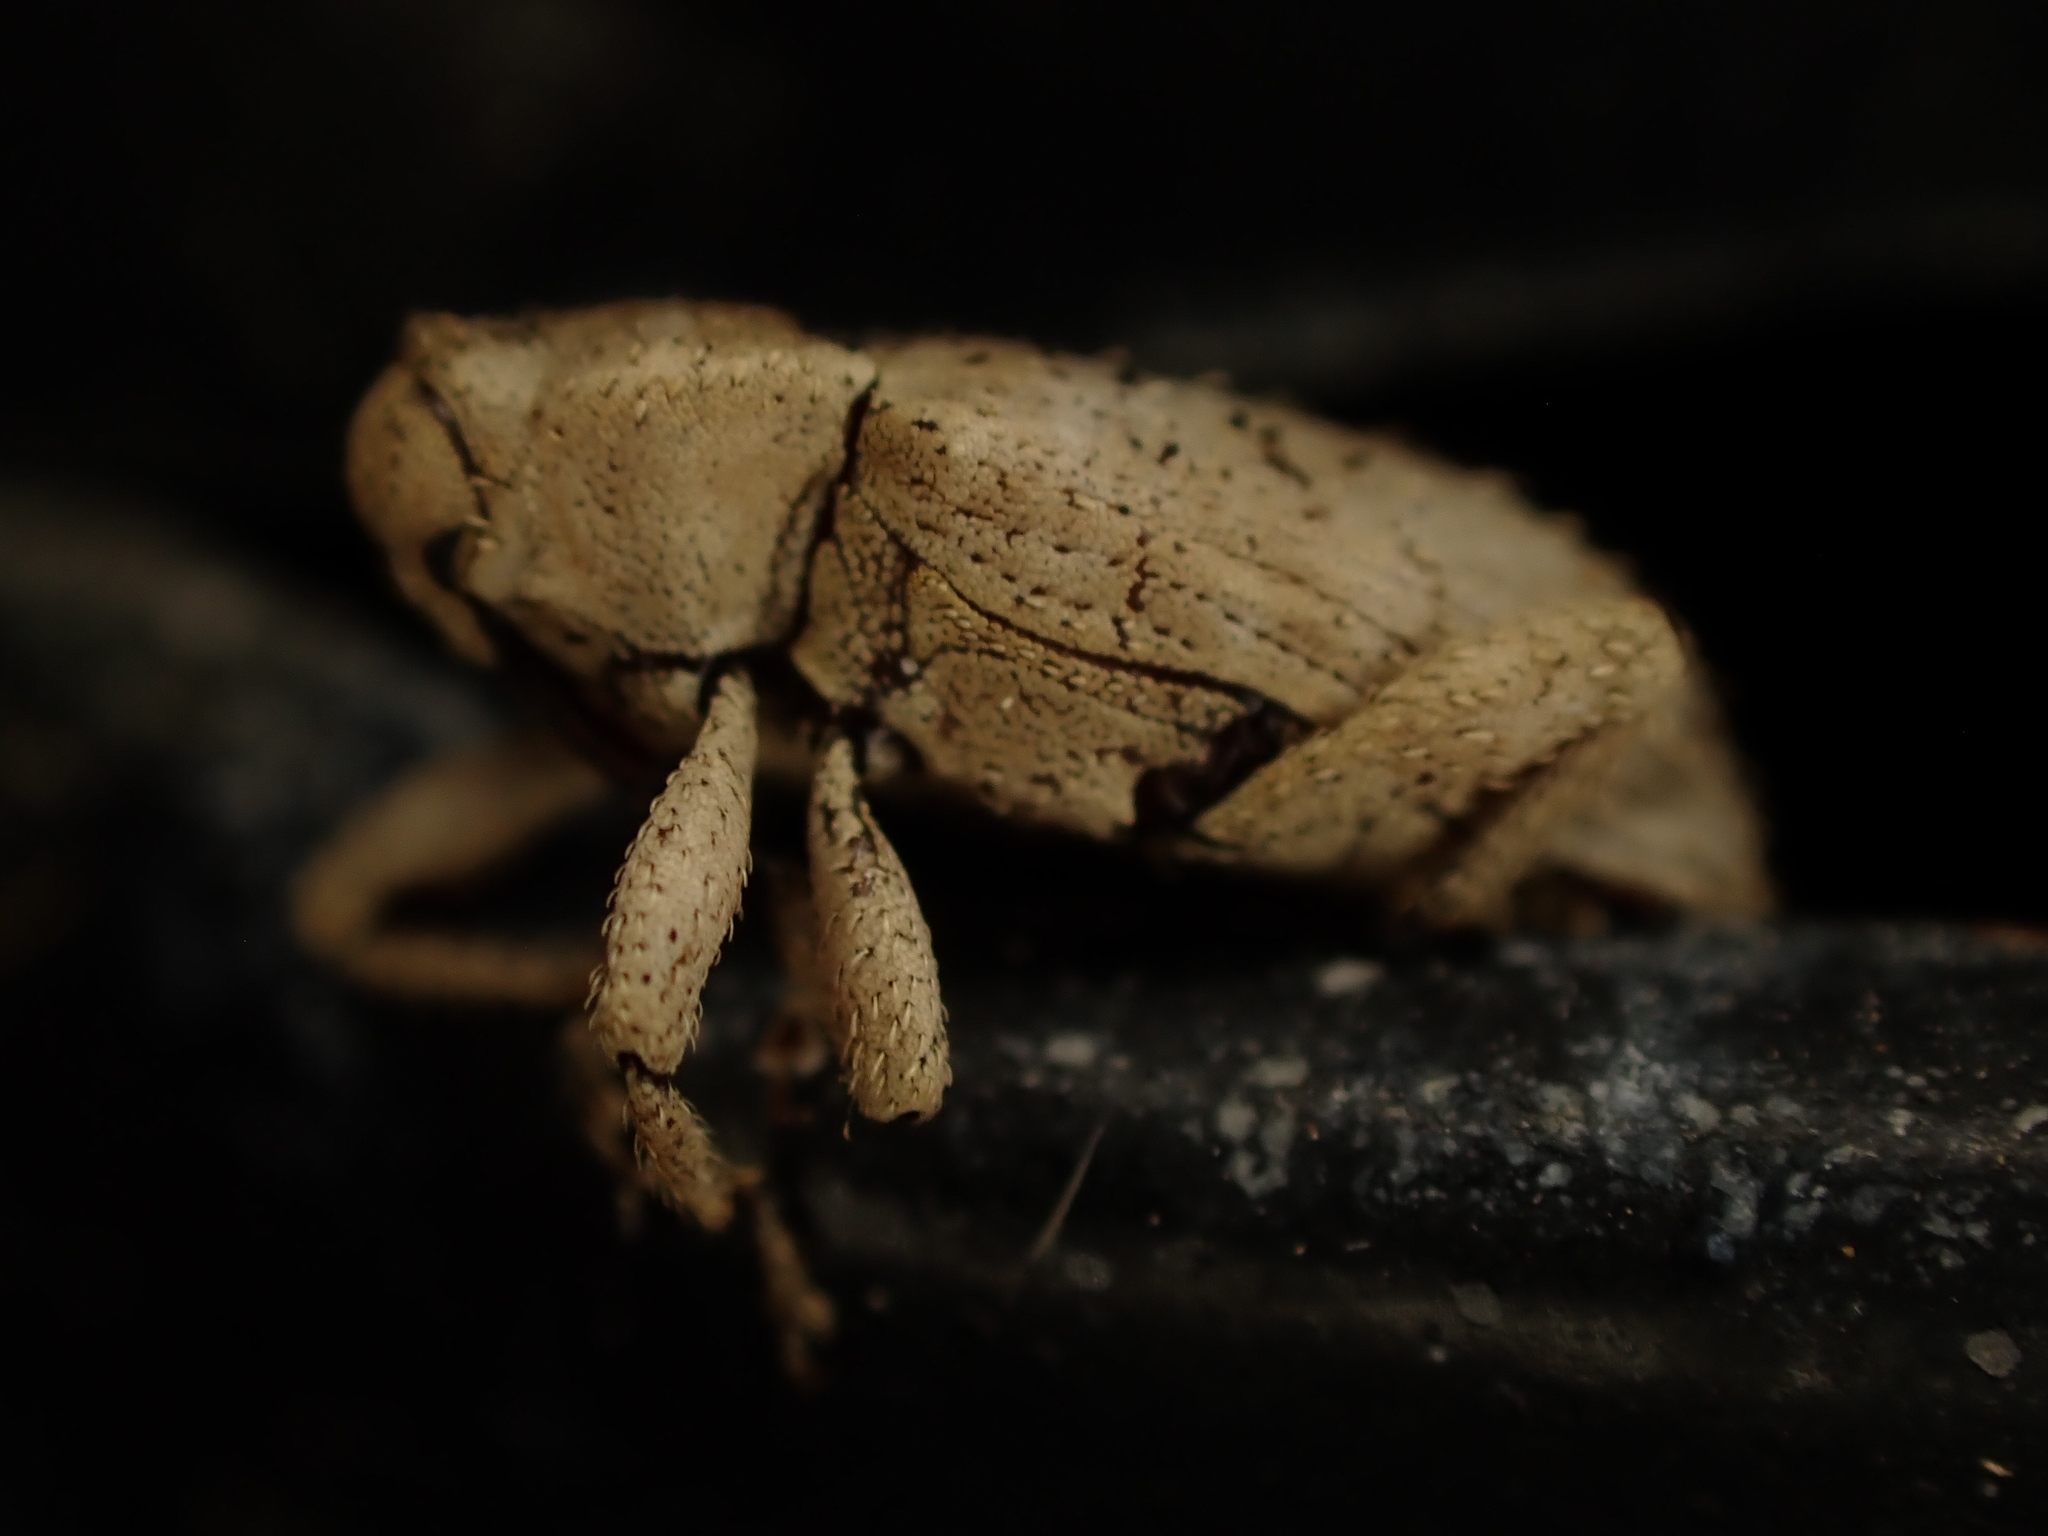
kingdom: Animalia
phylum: Arthropoda
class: Insecta
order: Coleoptera
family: Curculionidae
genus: Mitrastethus
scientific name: Mitrastethus baridioides
